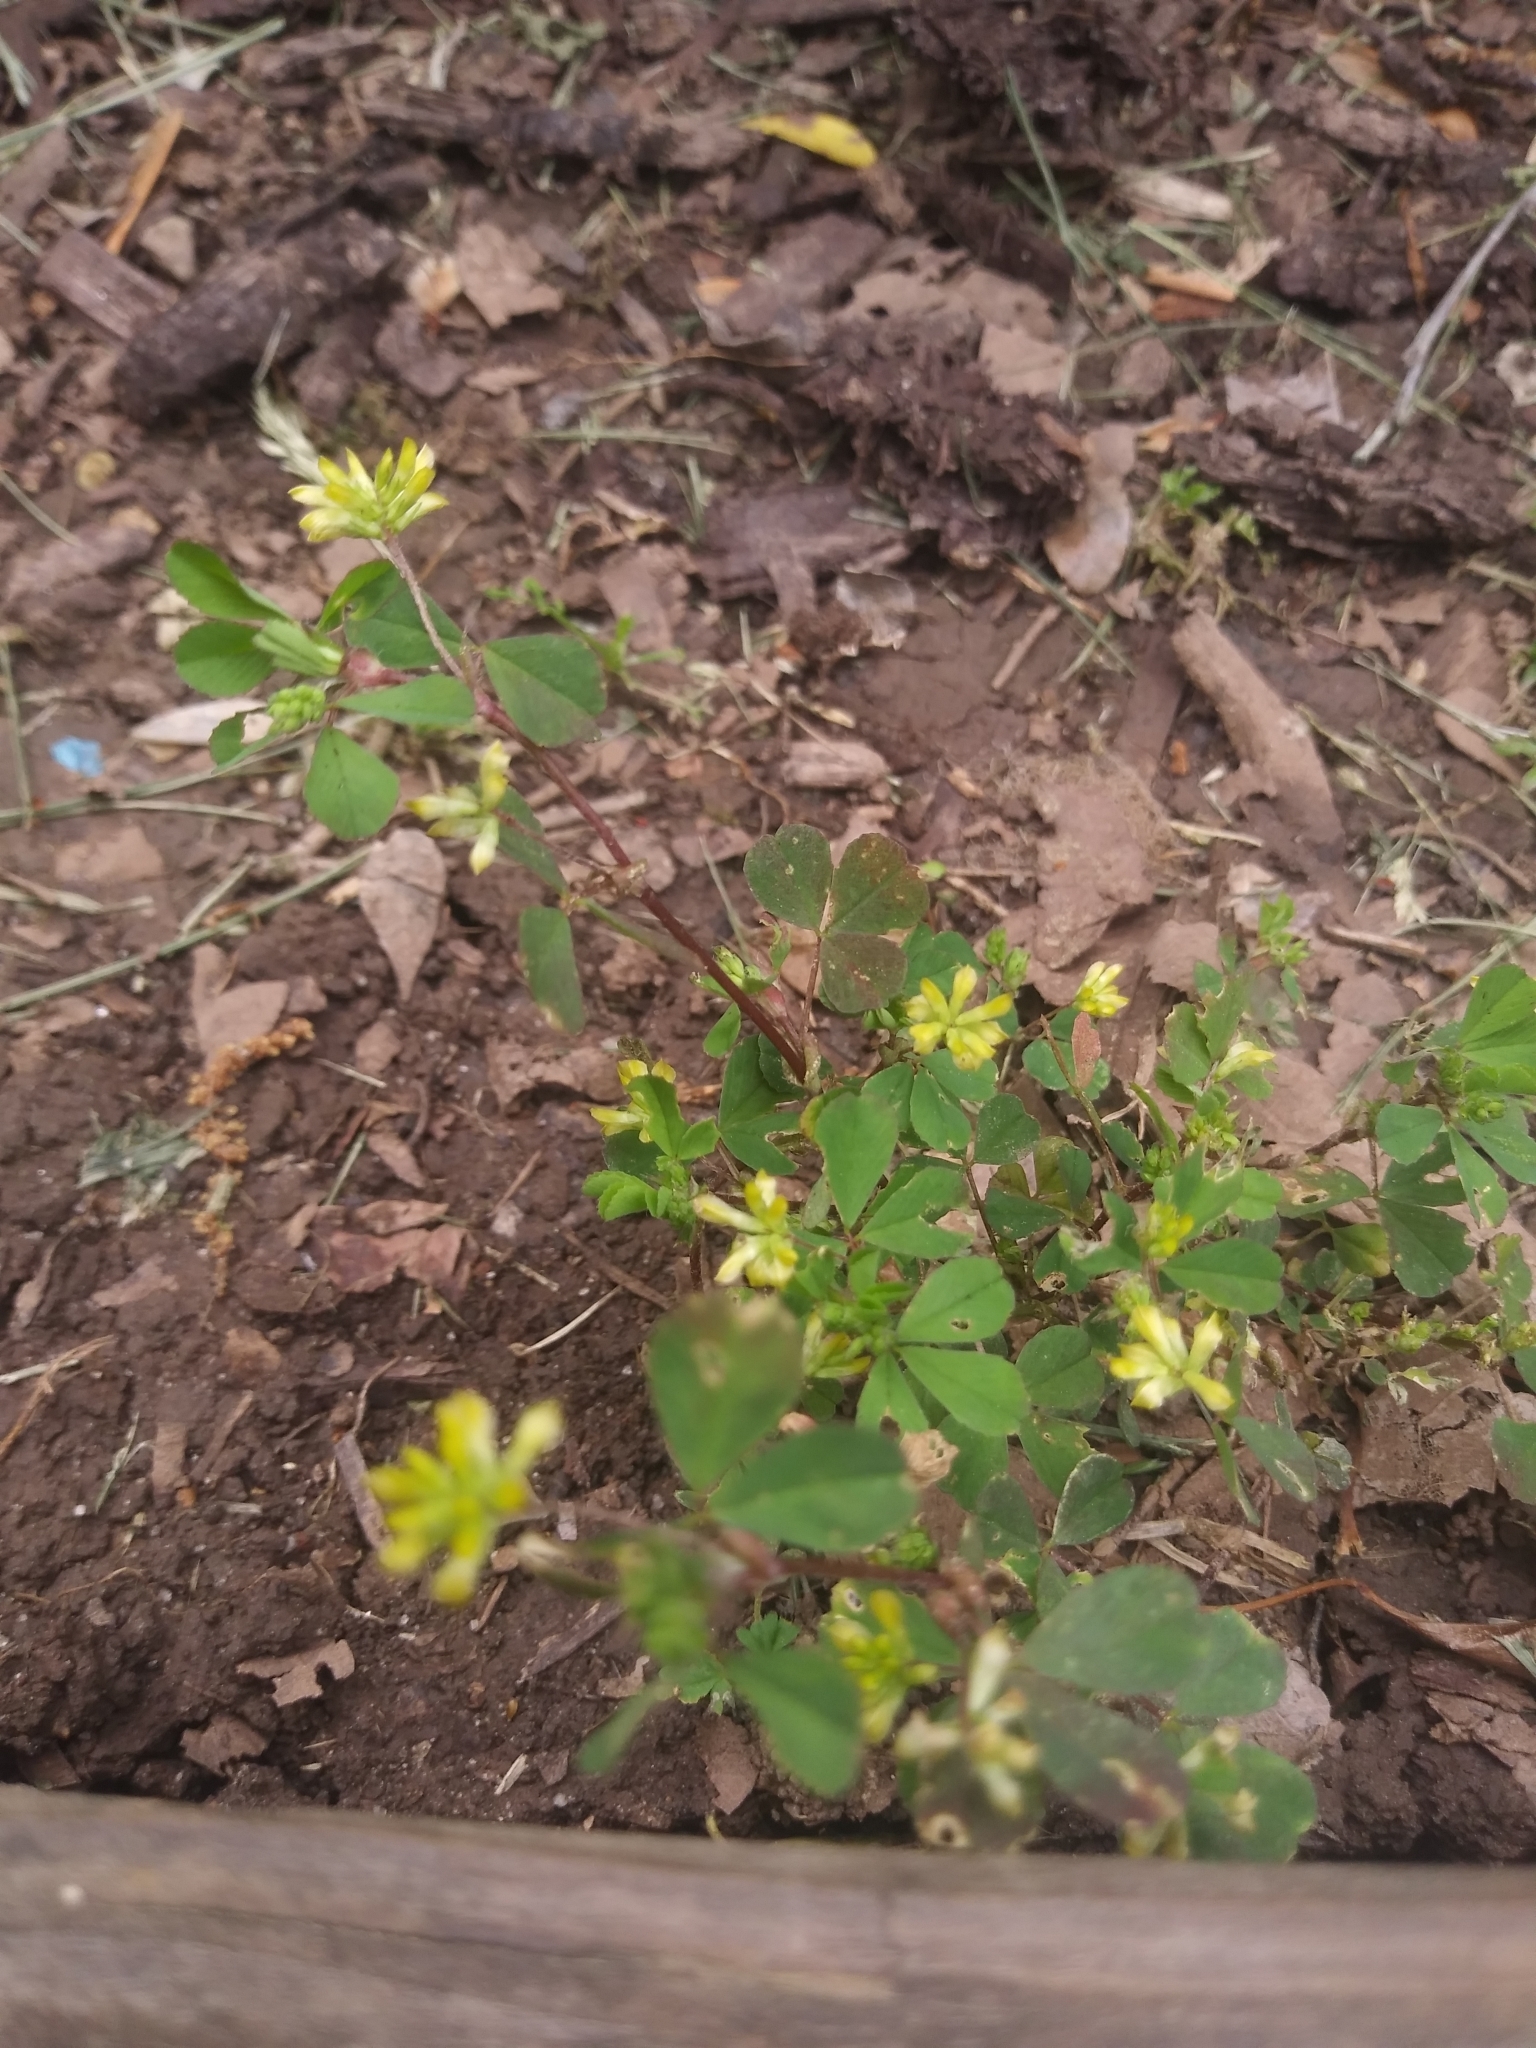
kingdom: Plantae
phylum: Tracheophyta
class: Magnoliopsida
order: Fabales
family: Fabaceae
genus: Trifolium
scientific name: Trifolium dubium
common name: Suckling clover
